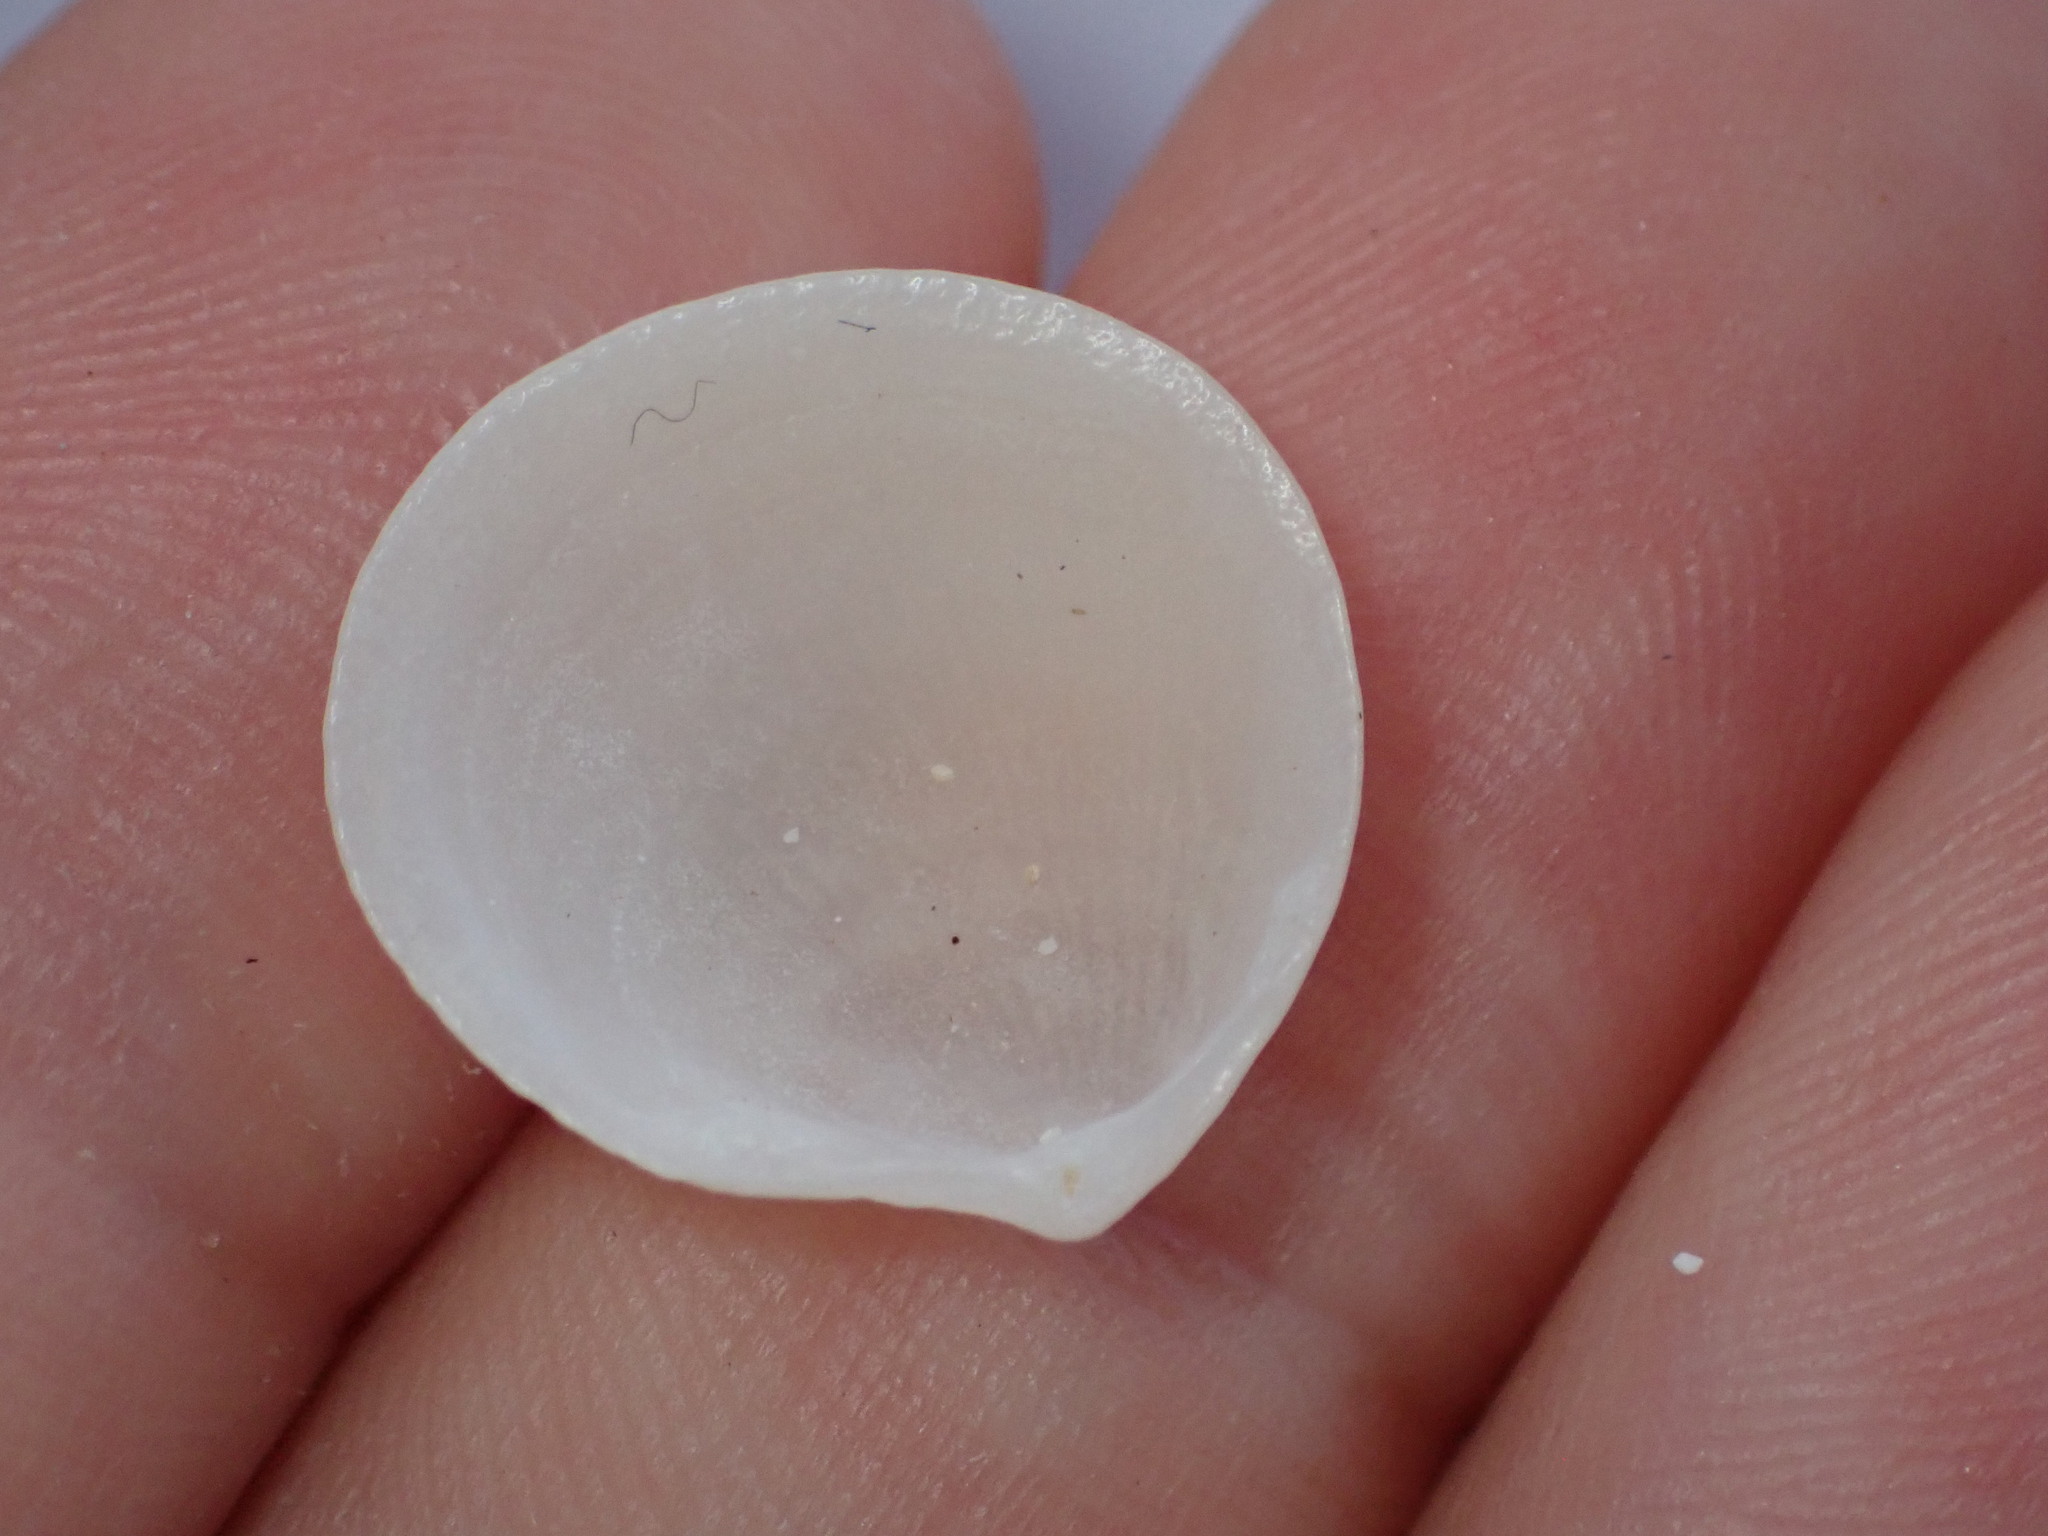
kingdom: Animalia
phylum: Mollusca
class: Bivalvia
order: Lucinida
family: Lucinidae
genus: Ctena
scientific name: Ctena decussata
